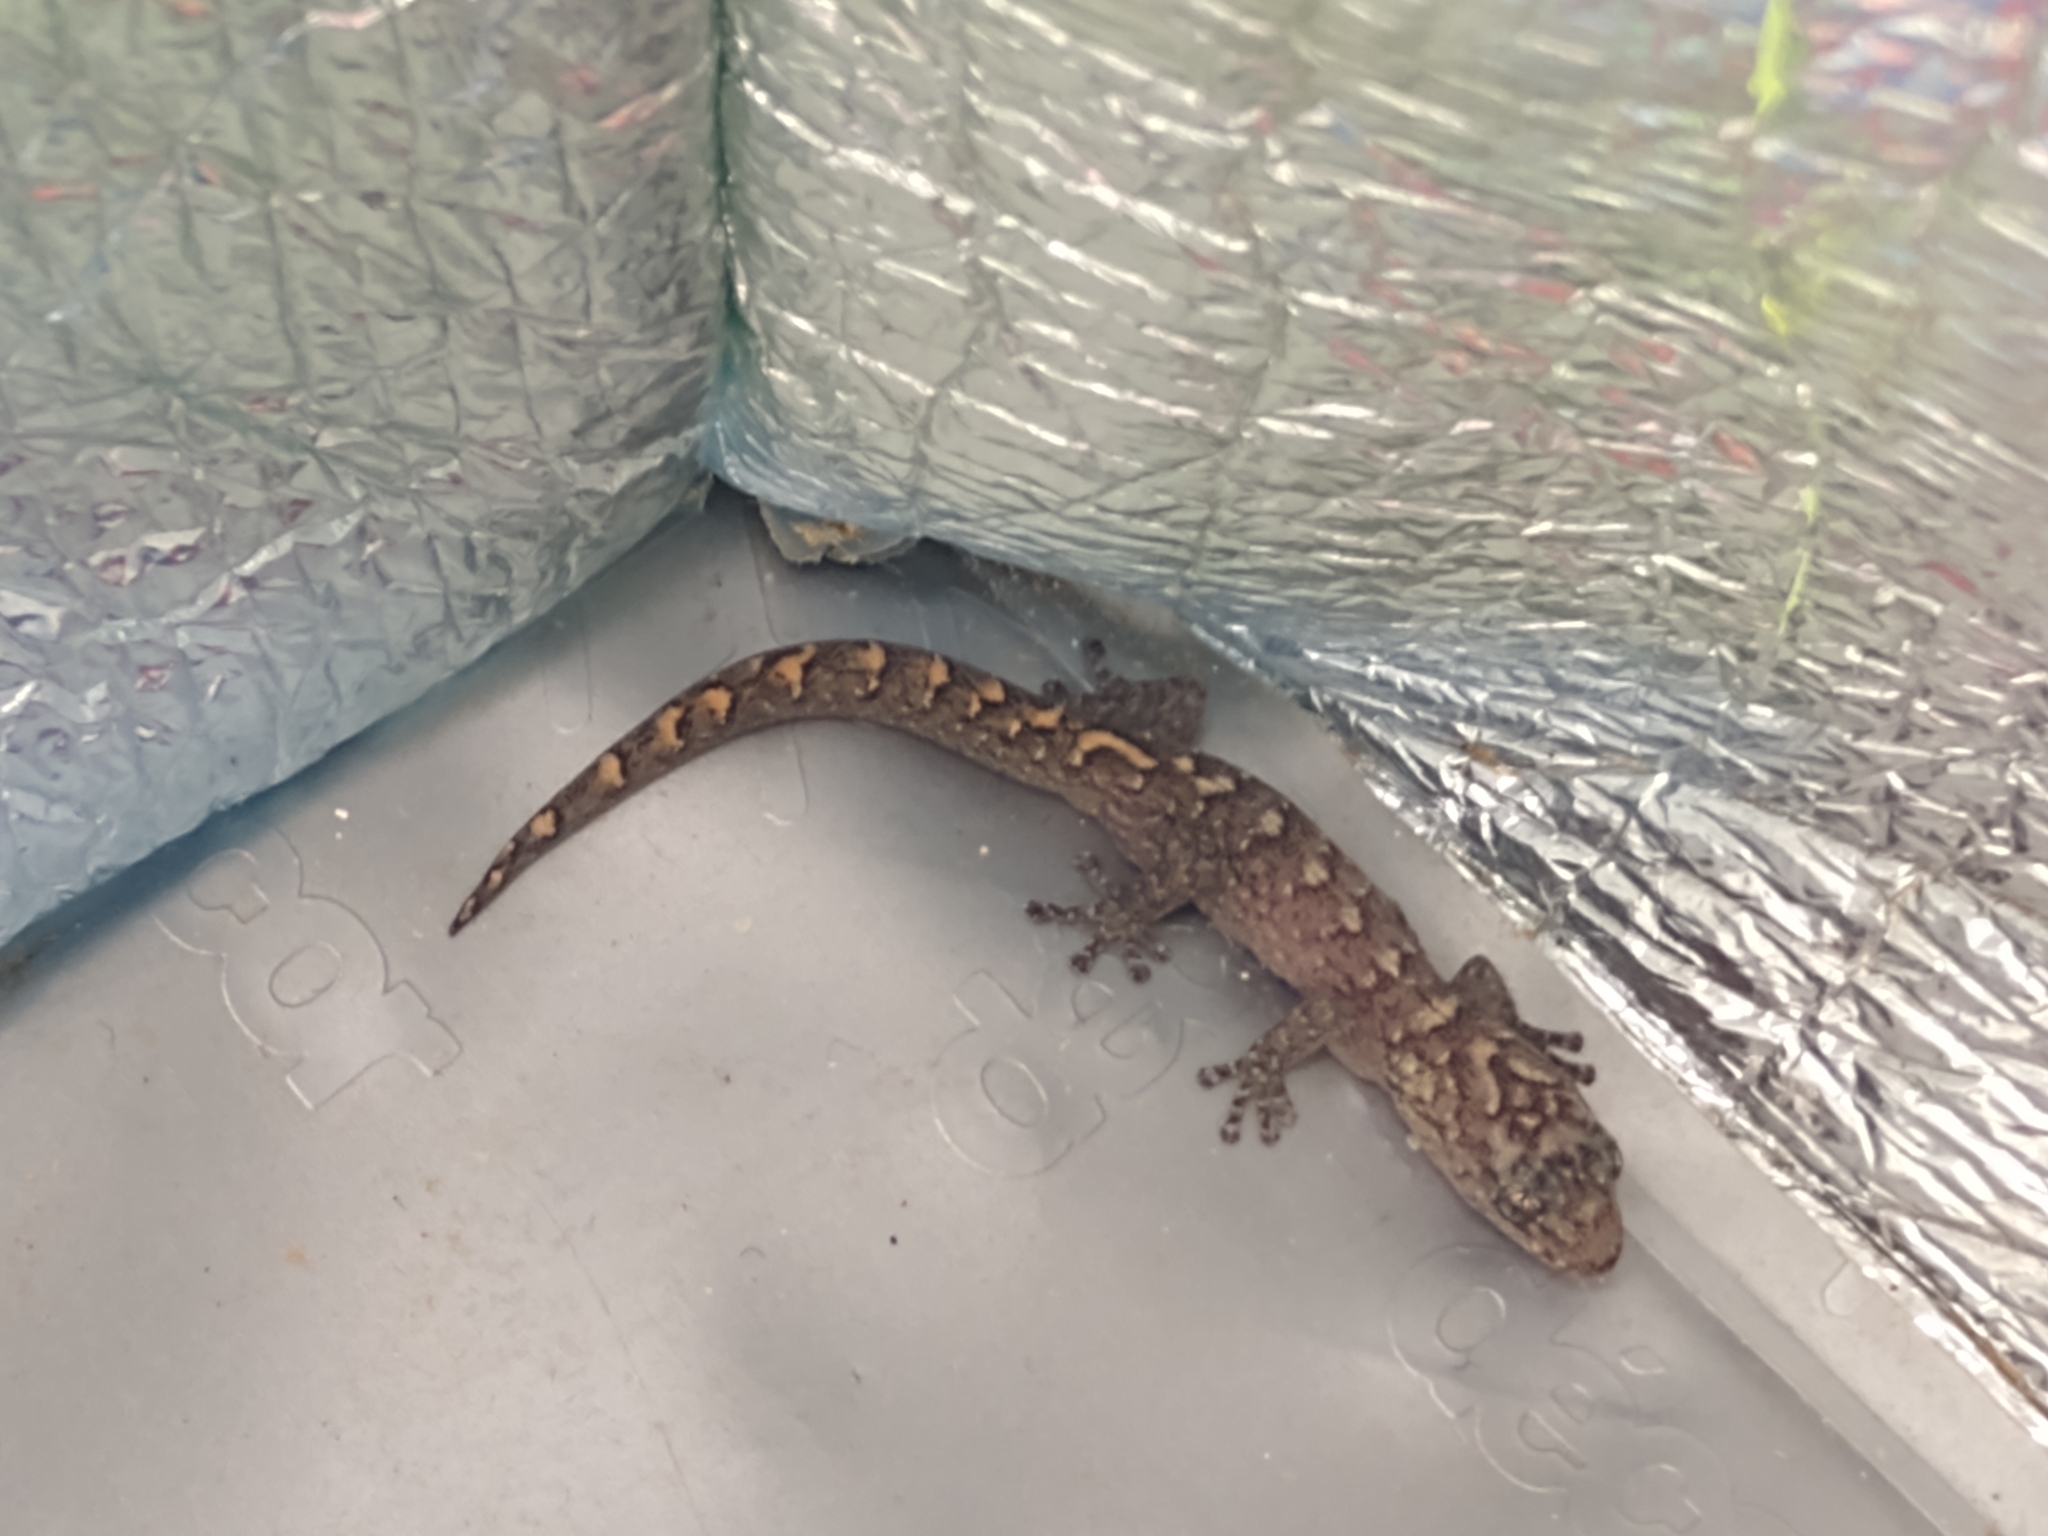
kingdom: Animalia
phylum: Chordata
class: Squamata
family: Gekkonidae
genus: Christinus
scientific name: Christinus marmoratus
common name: Marbled gecko
